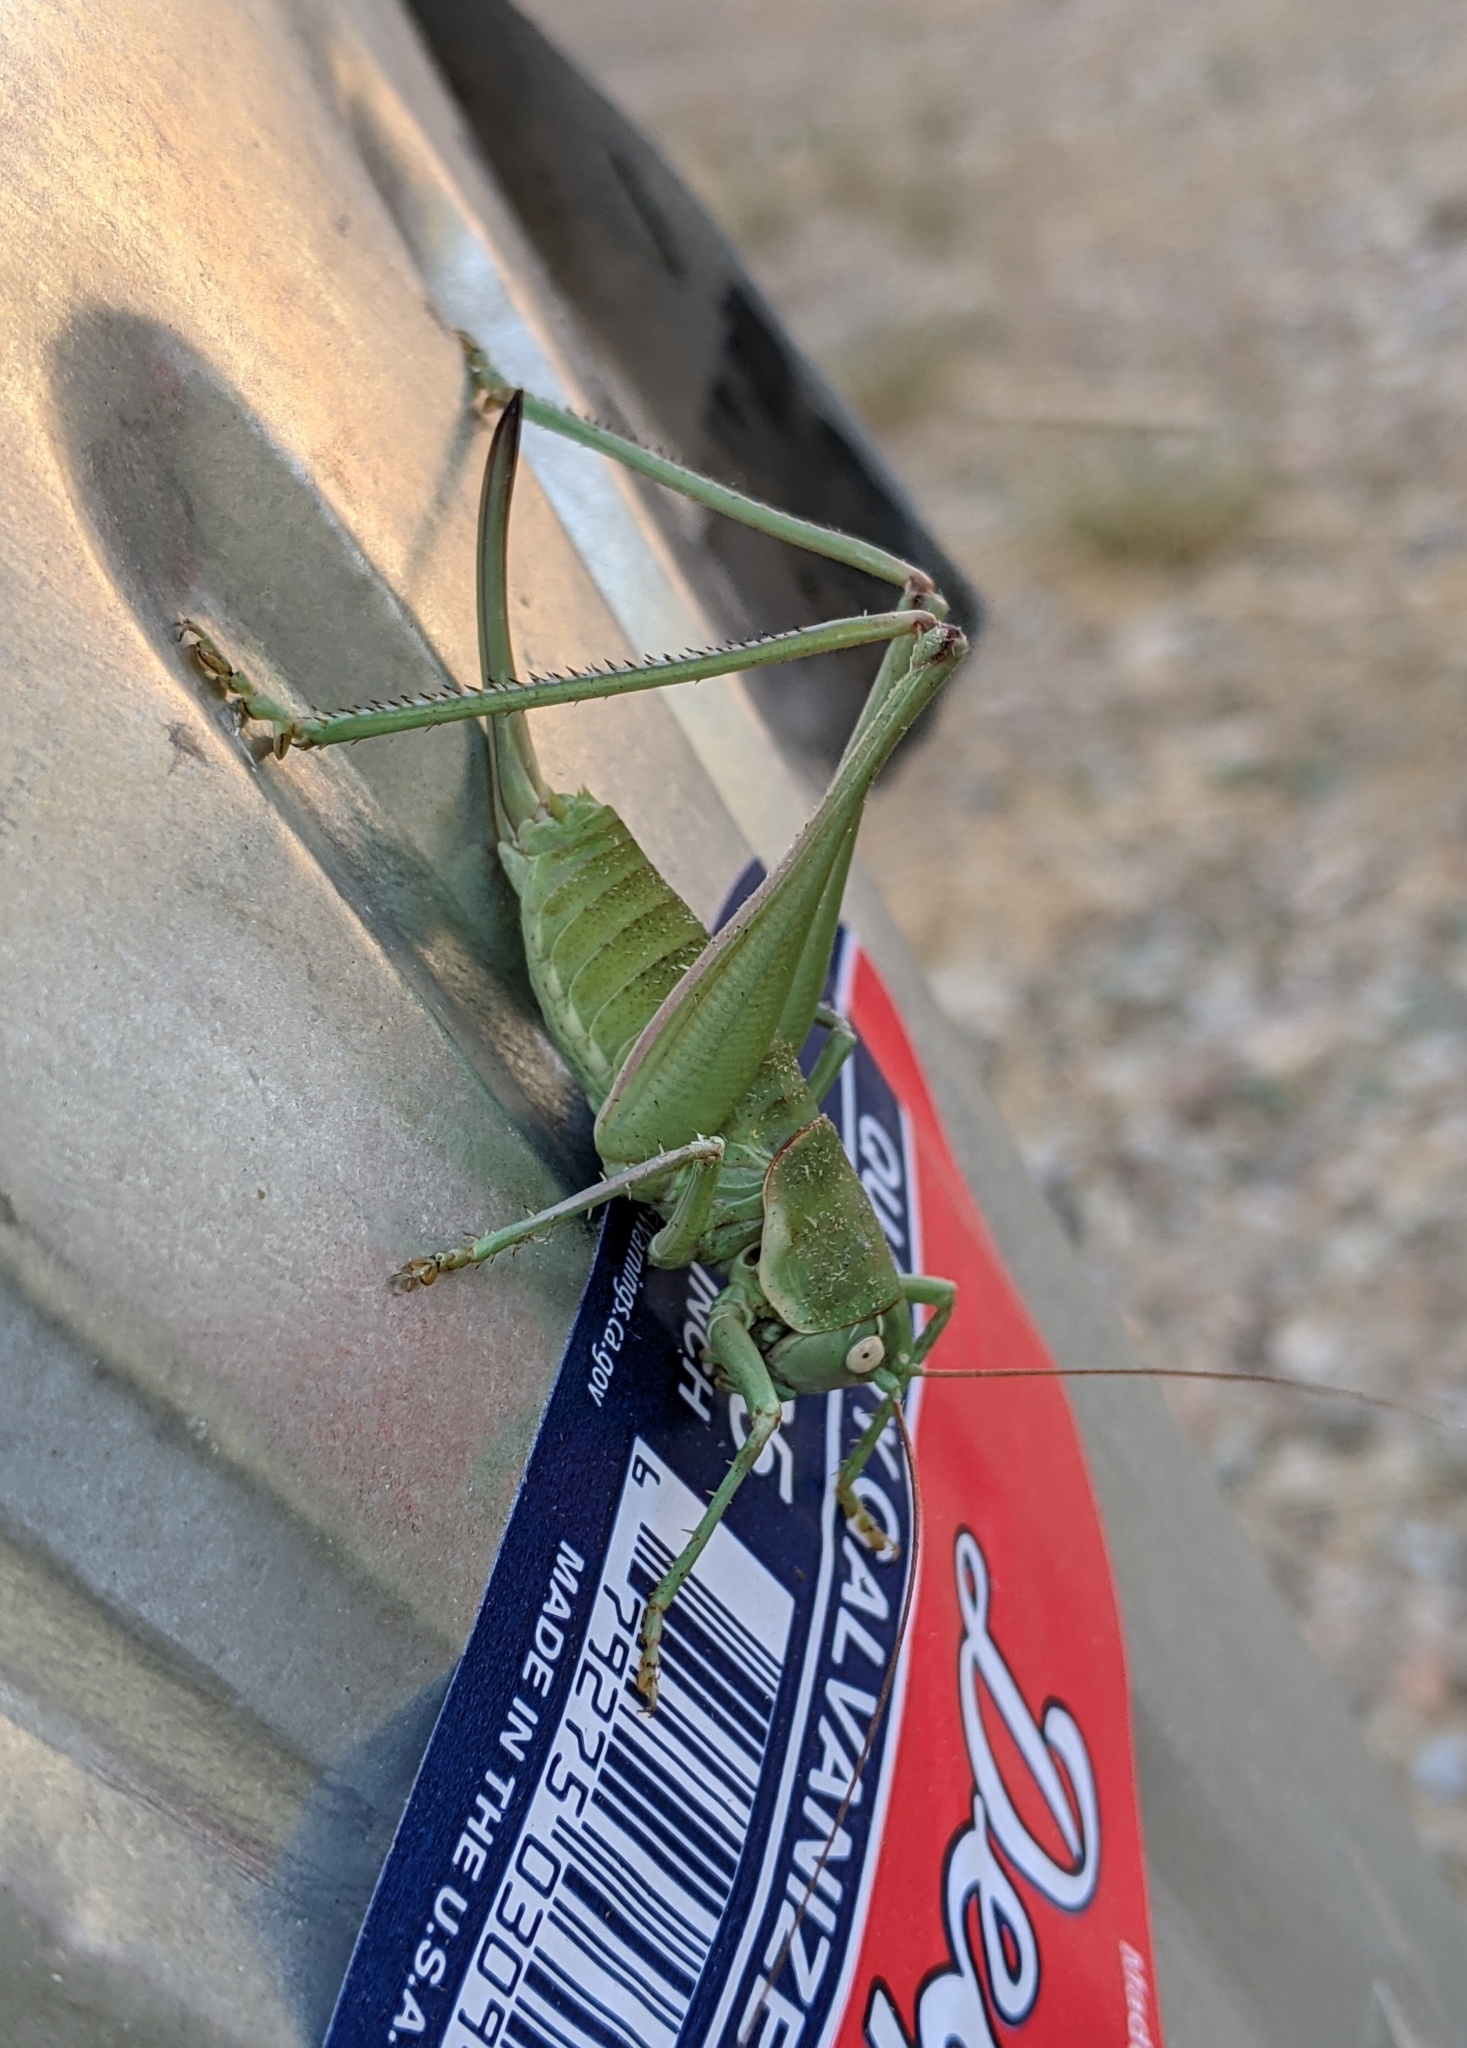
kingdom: Animalia
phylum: Arthropoda
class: Insecta
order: Orthoptera
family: Tettigoniidae
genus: Eremopedes
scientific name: Eremopedes covilleae
